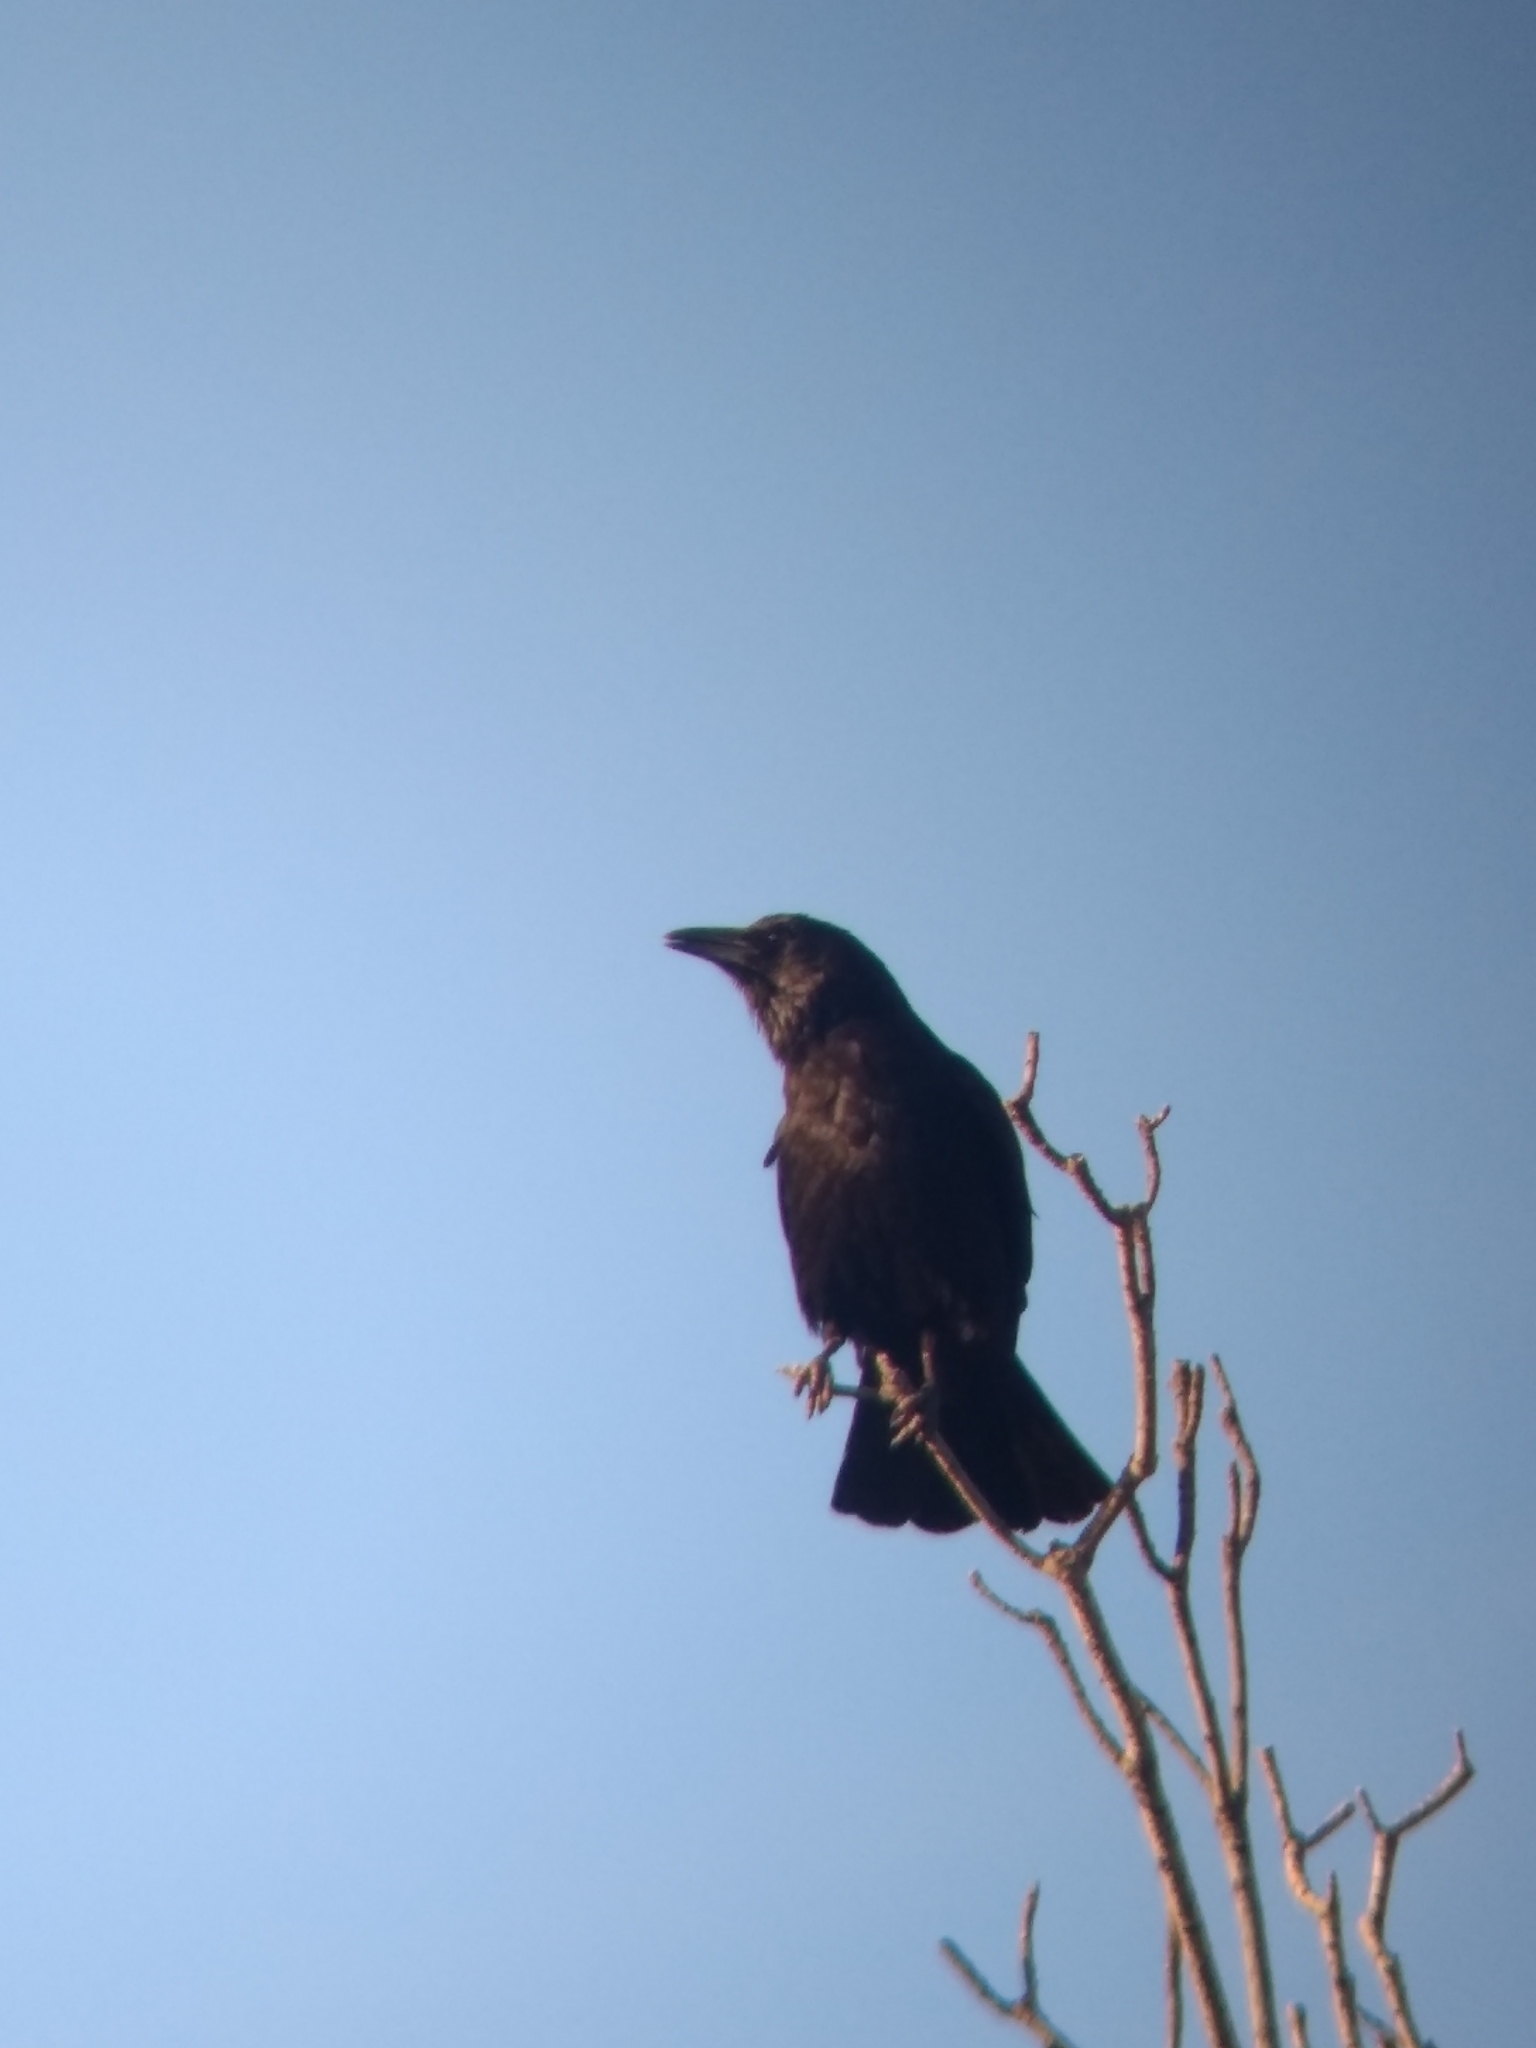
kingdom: Animalia
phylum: Chordata
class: Aves
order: Passeriformes
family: Corvidae
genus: Corvus
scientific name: Corvus brachyrhynchos
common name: American crow
